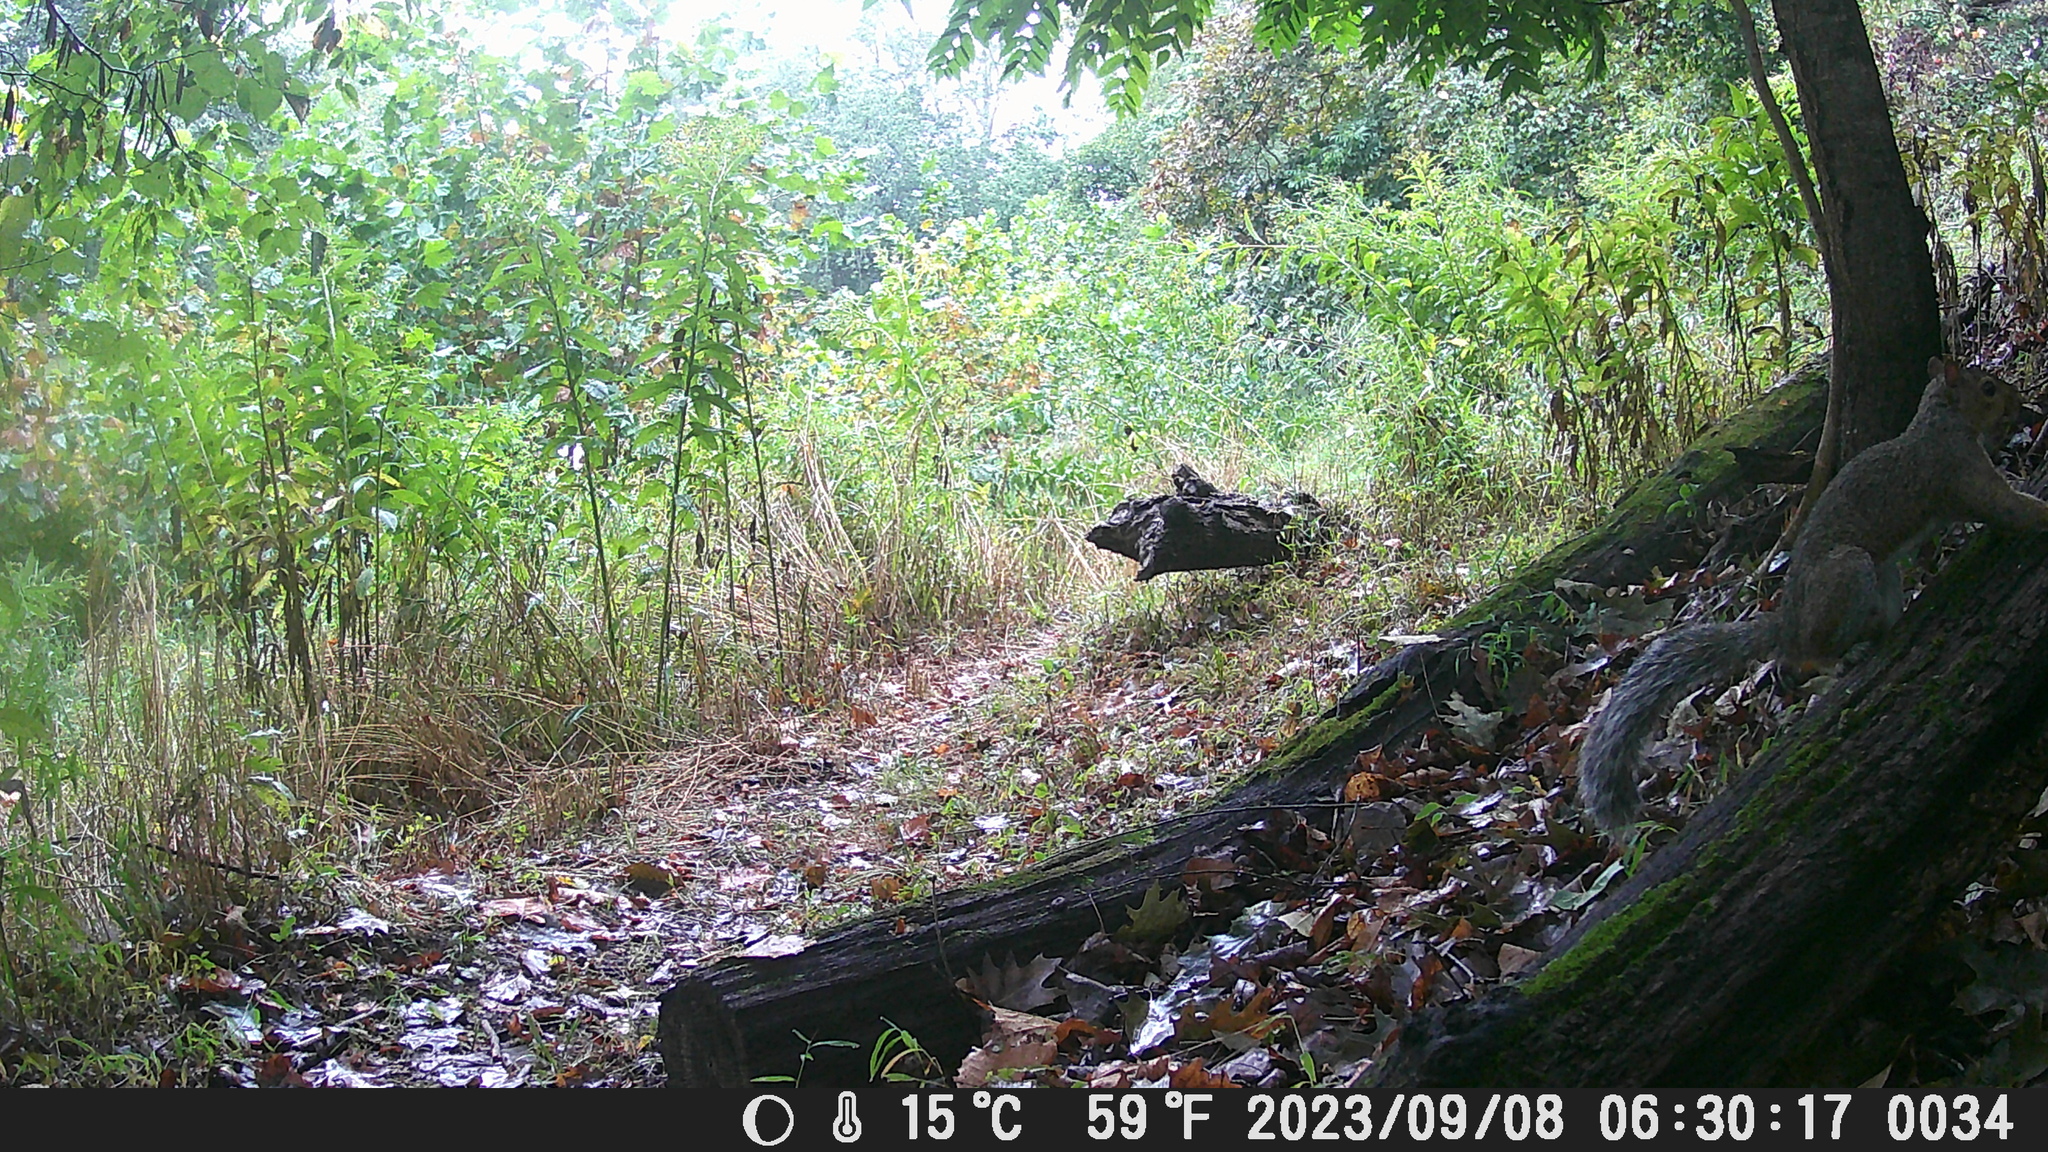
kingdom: Animalia
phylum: Chordata
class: Mammalia
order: Rodentia
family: Sciuridae
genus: Sciurus
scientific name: Sciurus carolinensis
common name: Eastern gray squirrel
